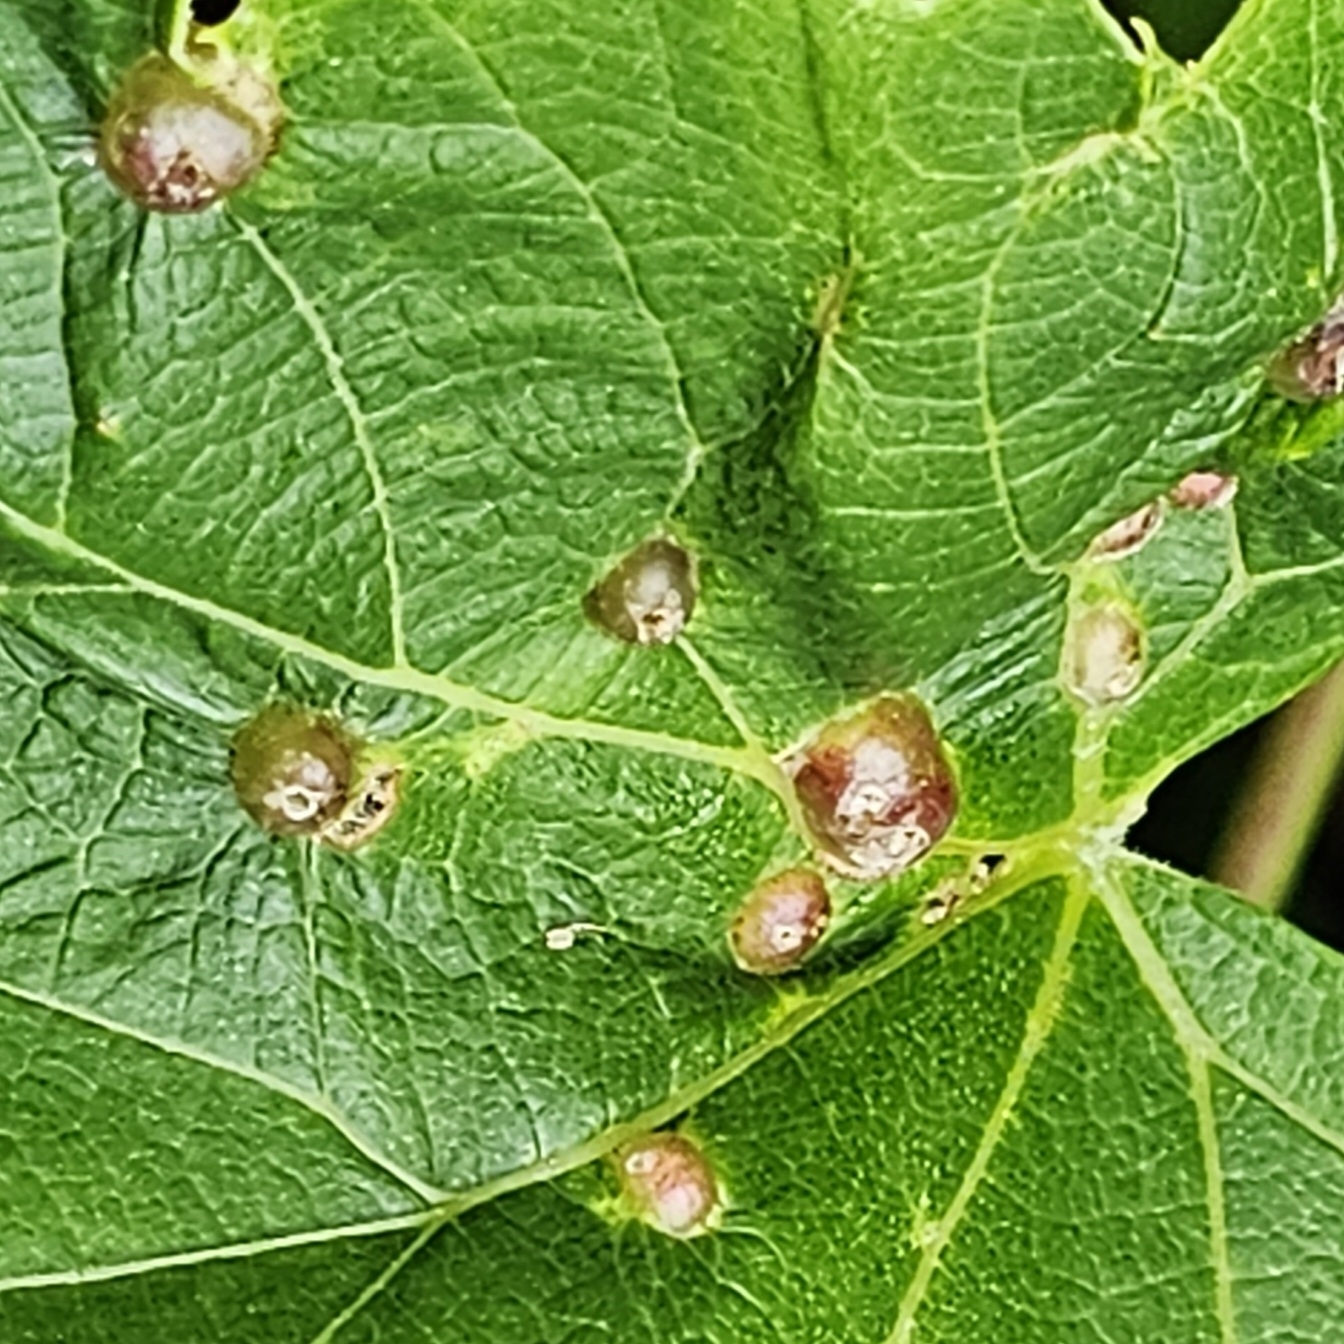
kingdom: Animalia
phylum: Arthropoda
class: Insecta
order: Diptera
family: Cecidomyiidae
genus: Vitisiella
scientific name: Vitisiella brevicauda
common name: Grape tumid gallmaker midge
